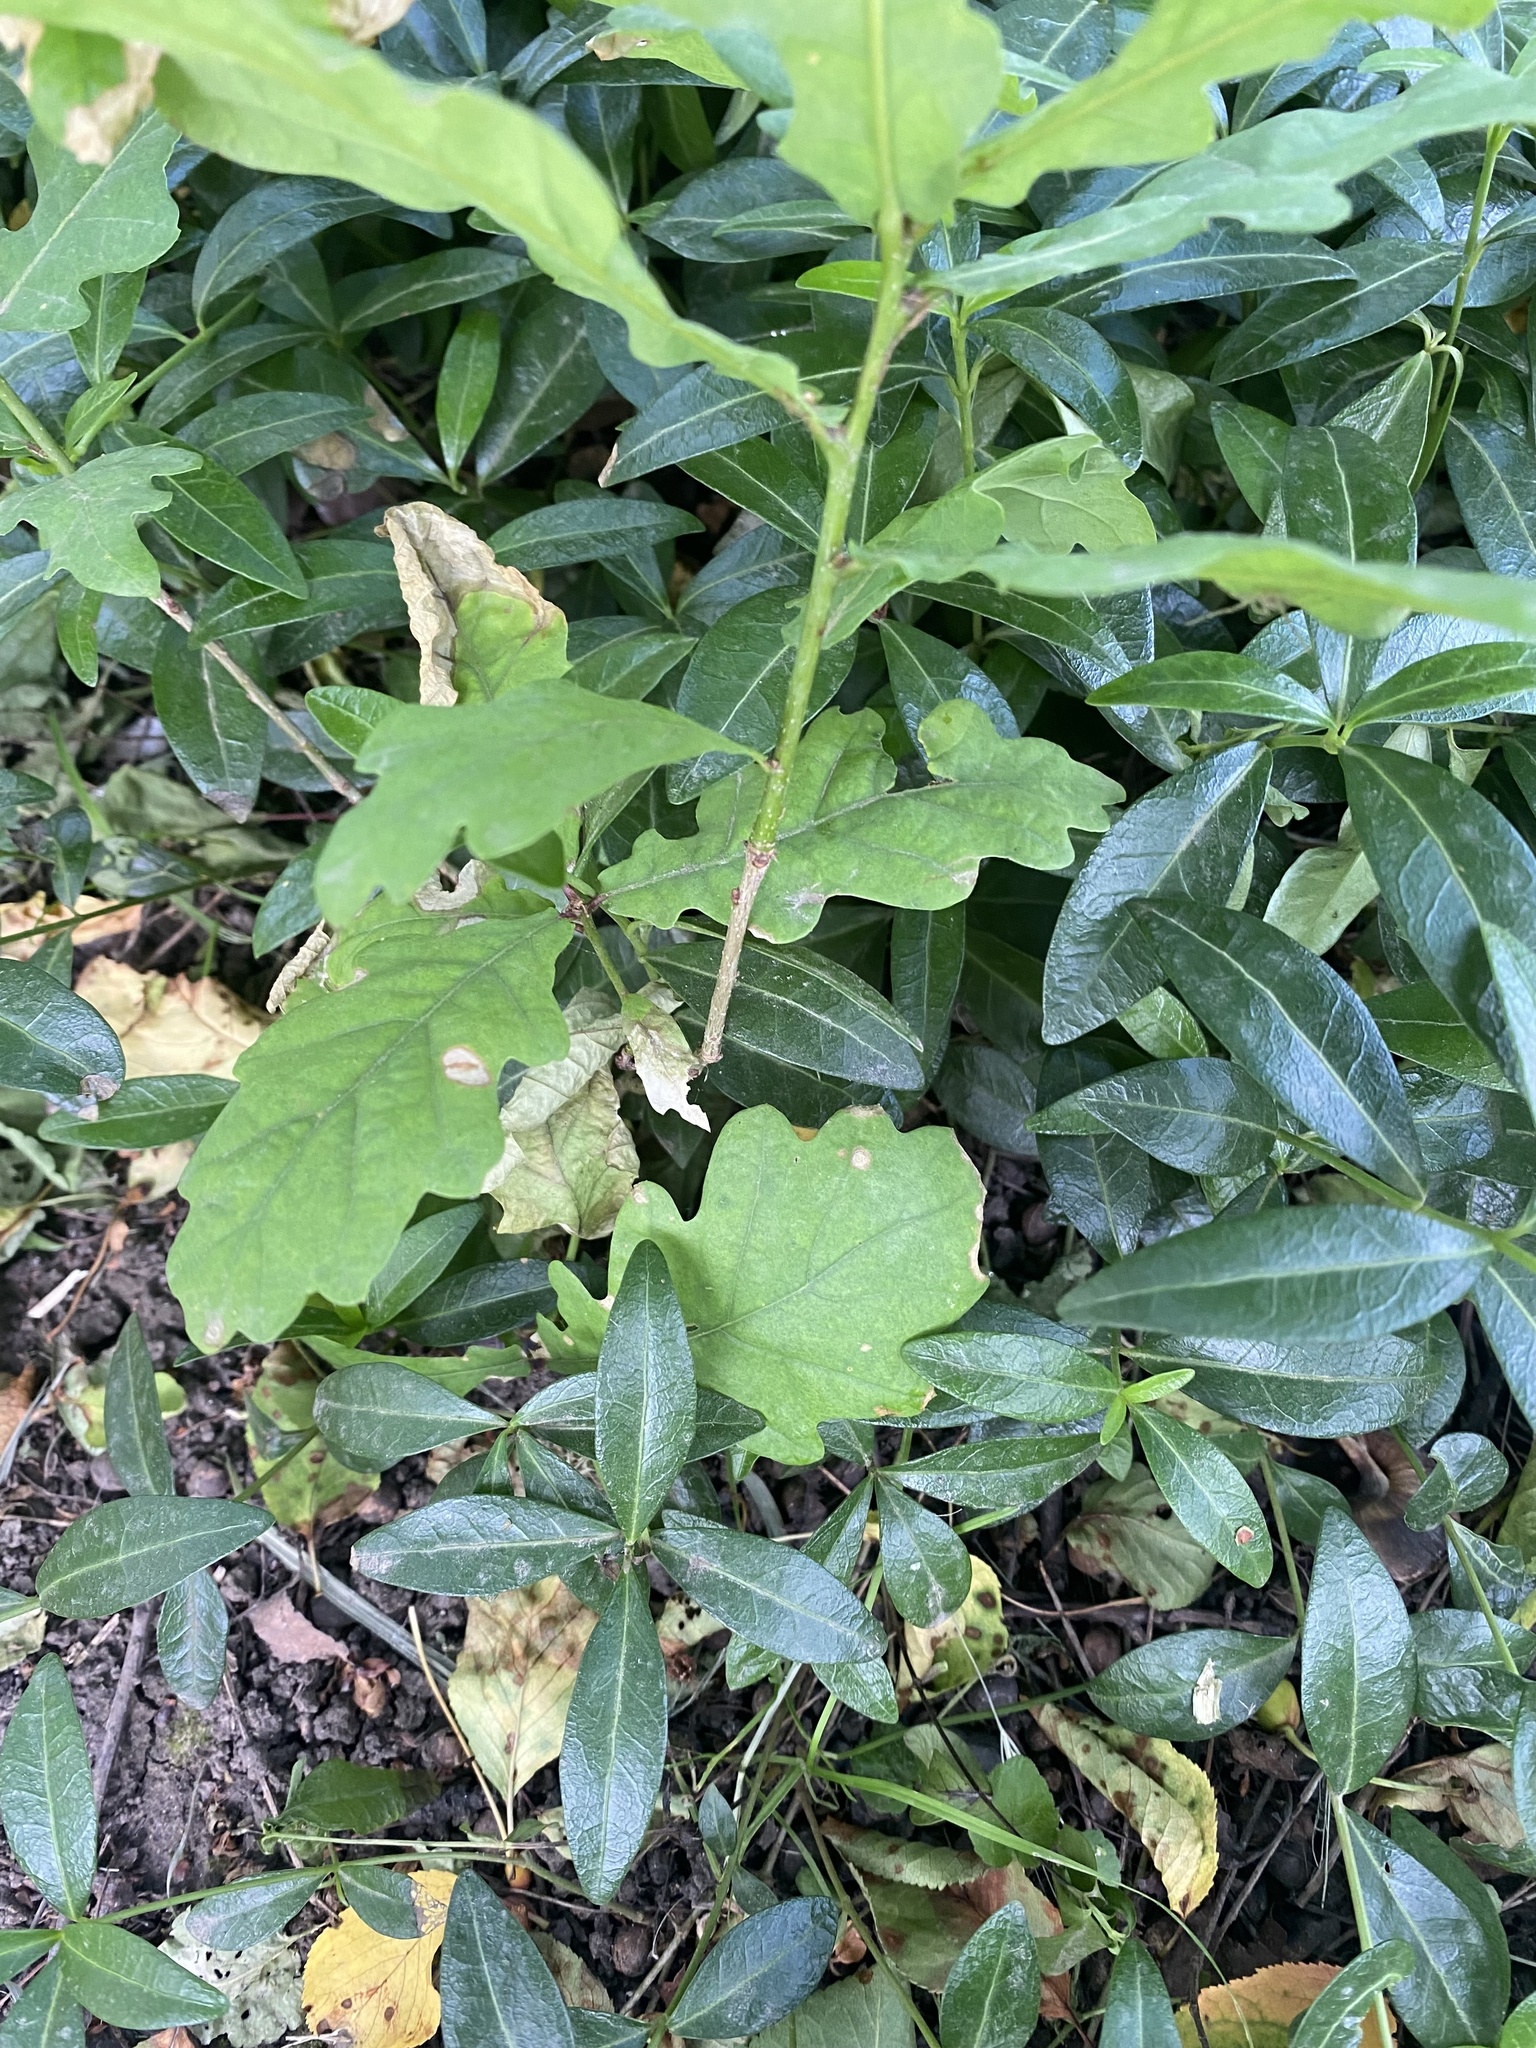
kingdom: Plantae
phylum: Tracheophyta
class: Magnoliopsida
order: Fagales
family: Fagaceae
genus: Quercus
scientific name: Quercus robur
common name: Pedunculate oak
